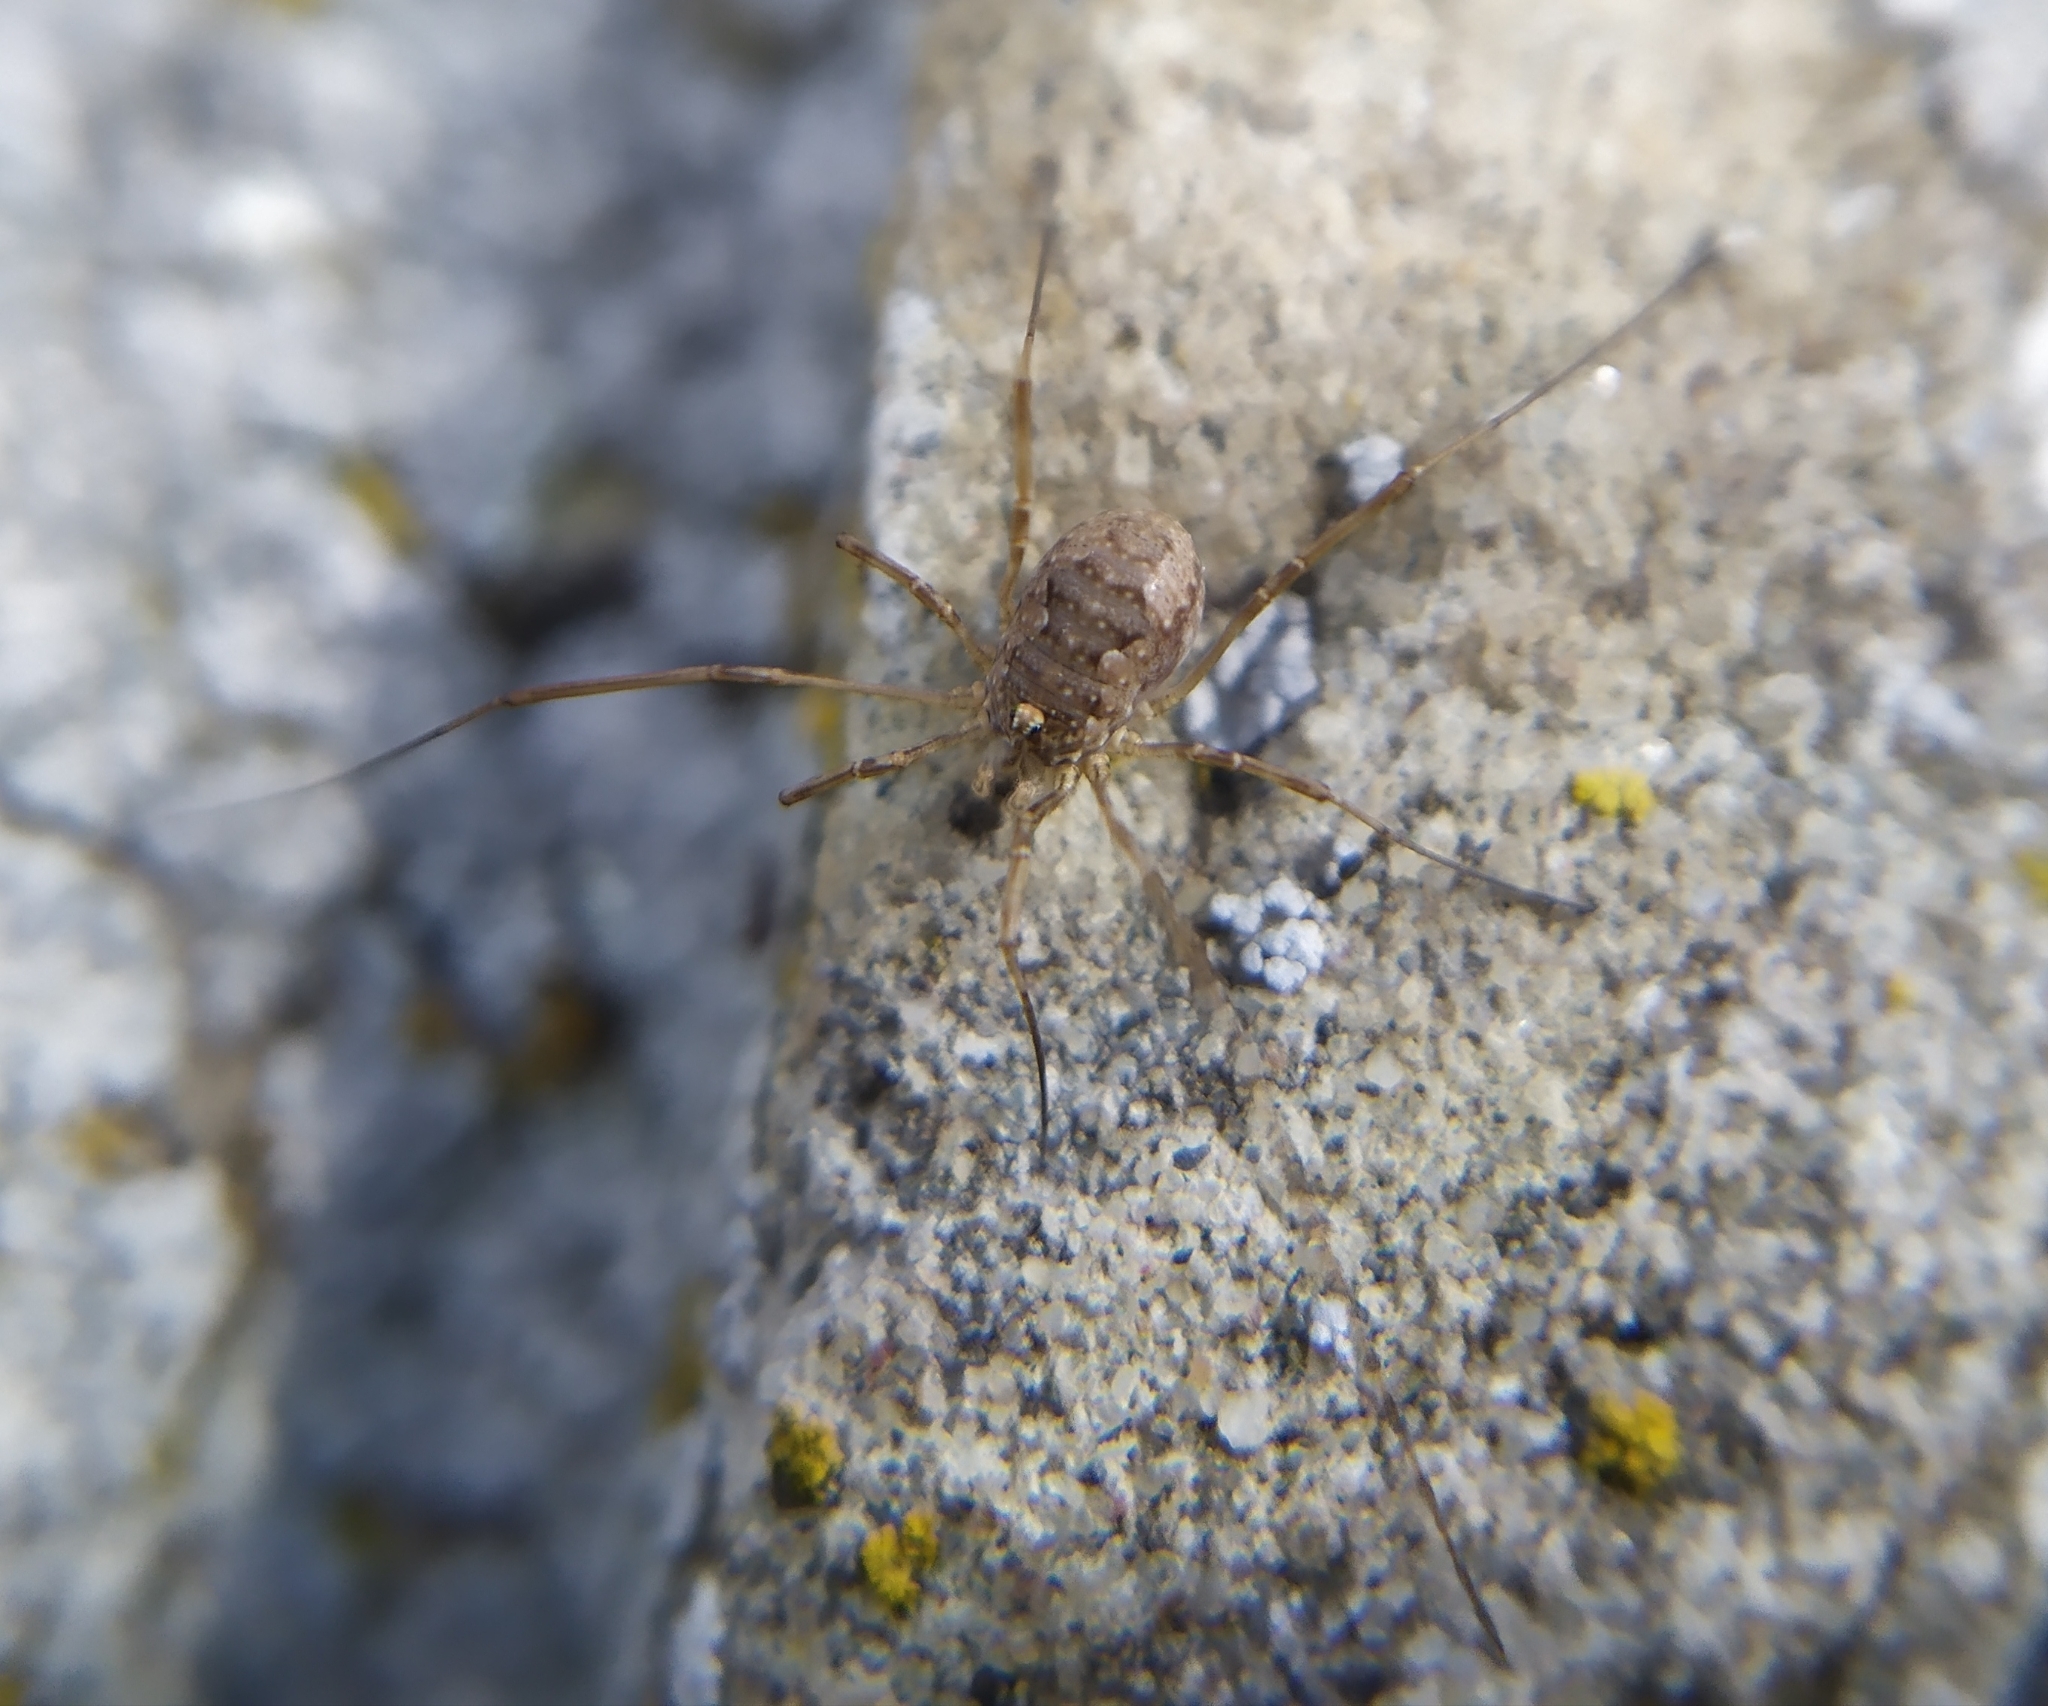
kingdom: Animalia
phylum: Arthropoda
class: Arachnida
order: Opiliones
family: Phalangiidae
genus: Phalangium
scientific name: Phalangium opilio
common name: Daddy longleg
